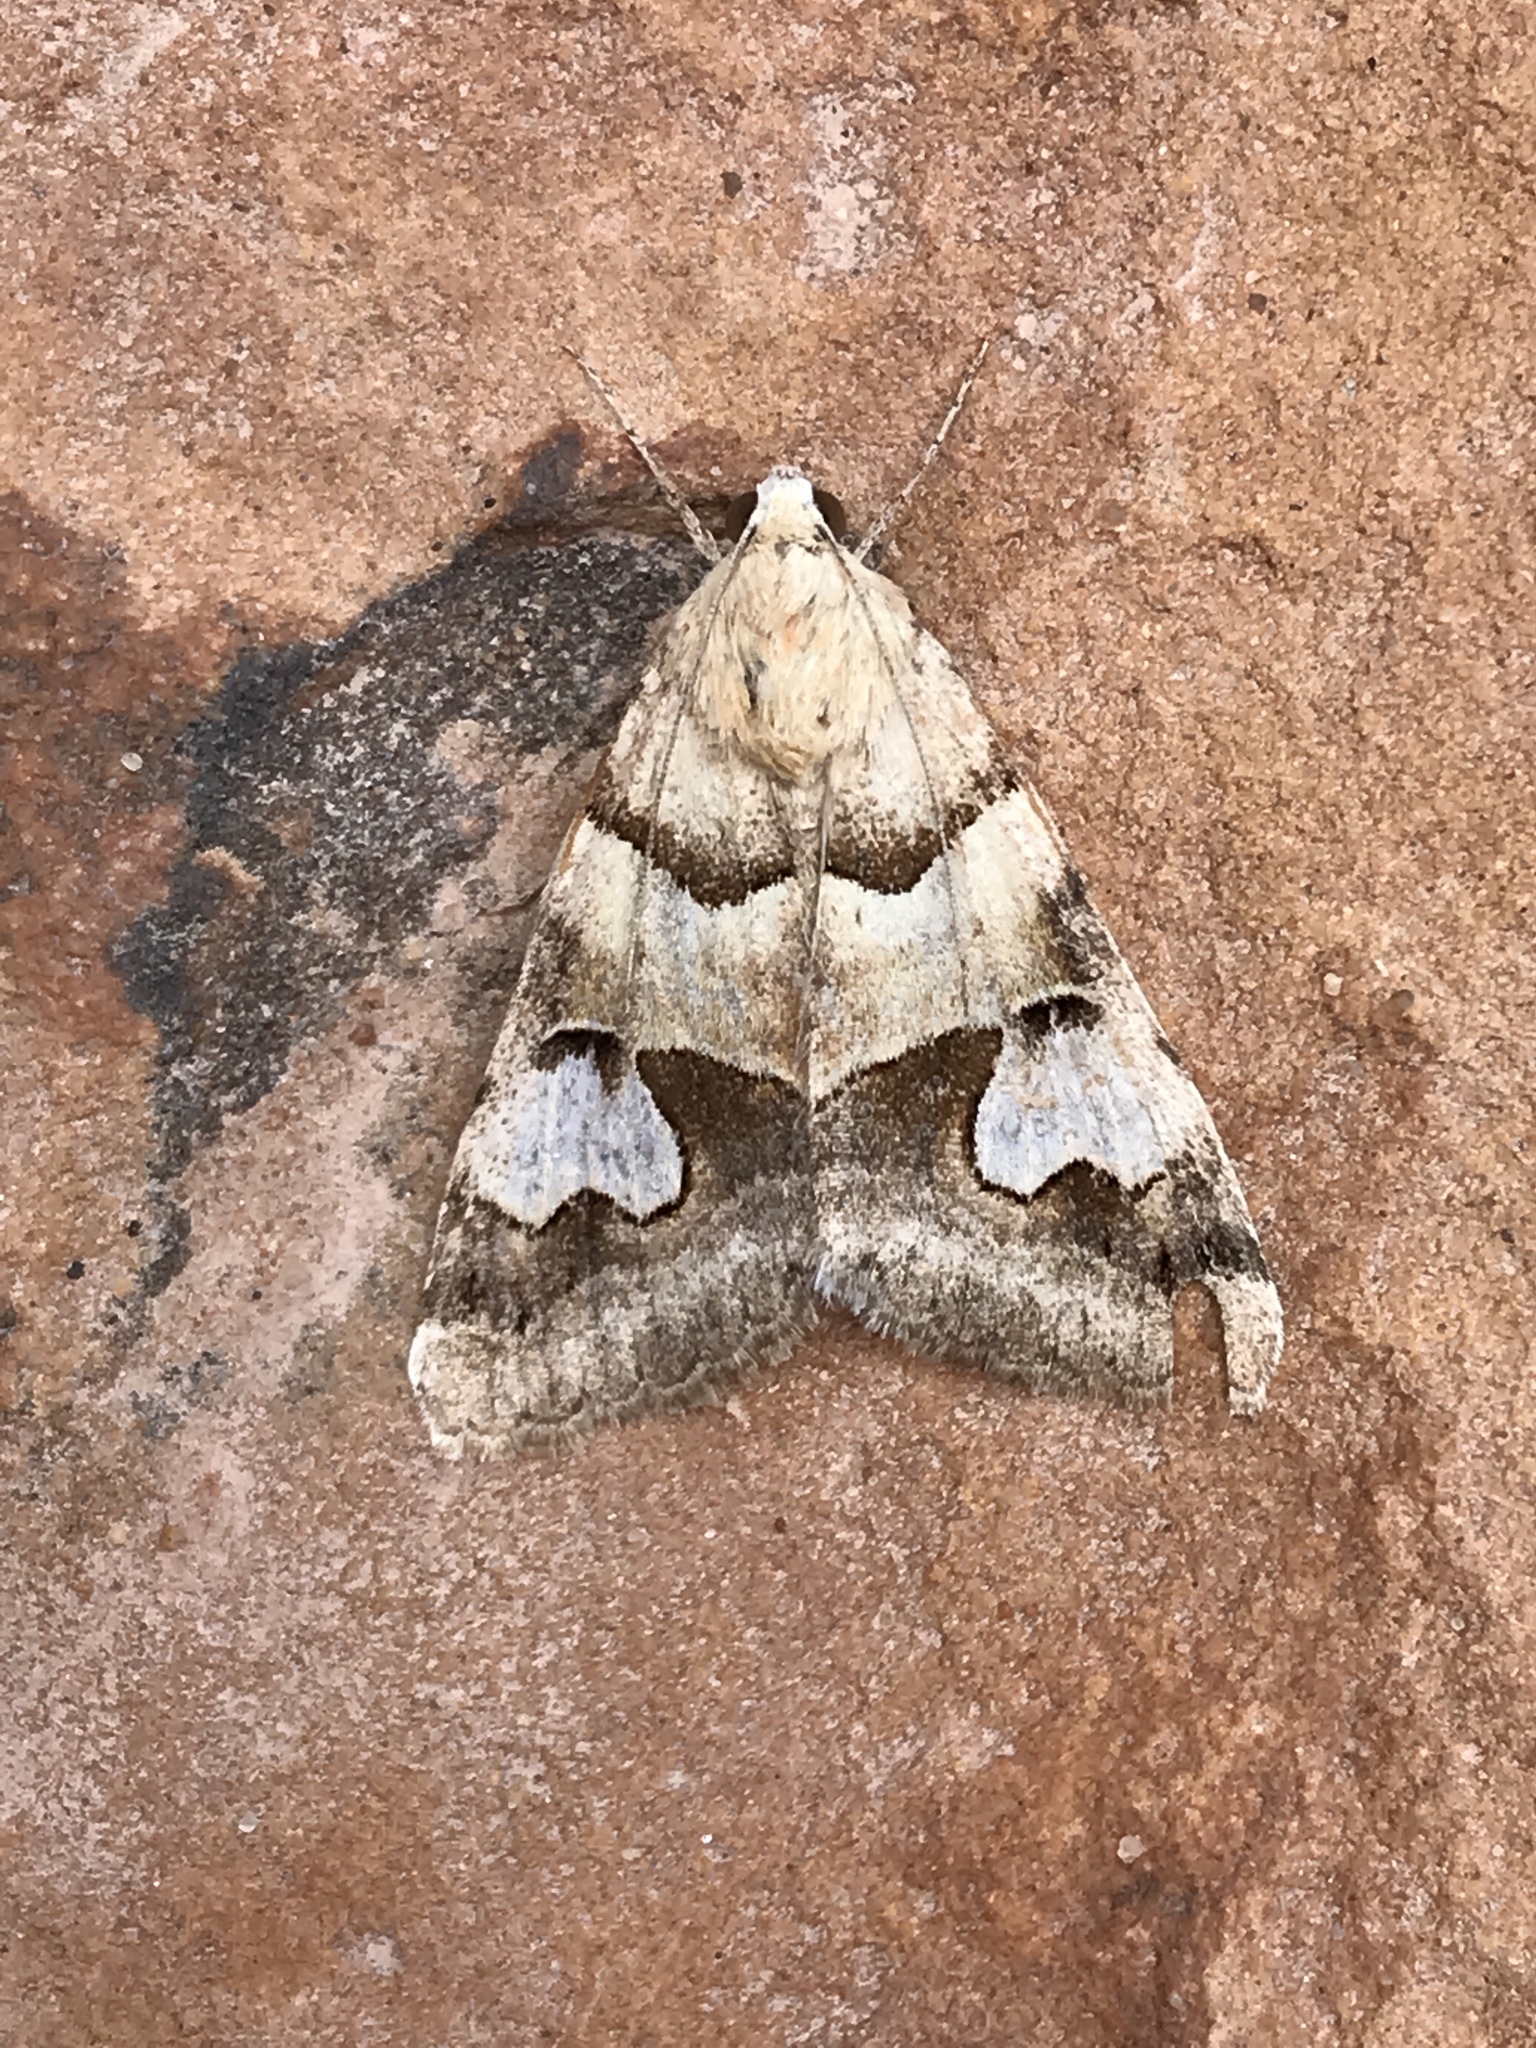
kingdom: Animalia
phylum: Arthropoda
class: Insecta
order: Lepidoptera
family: Erebidae
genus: Drasteria
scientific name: Drasteria pallescens
